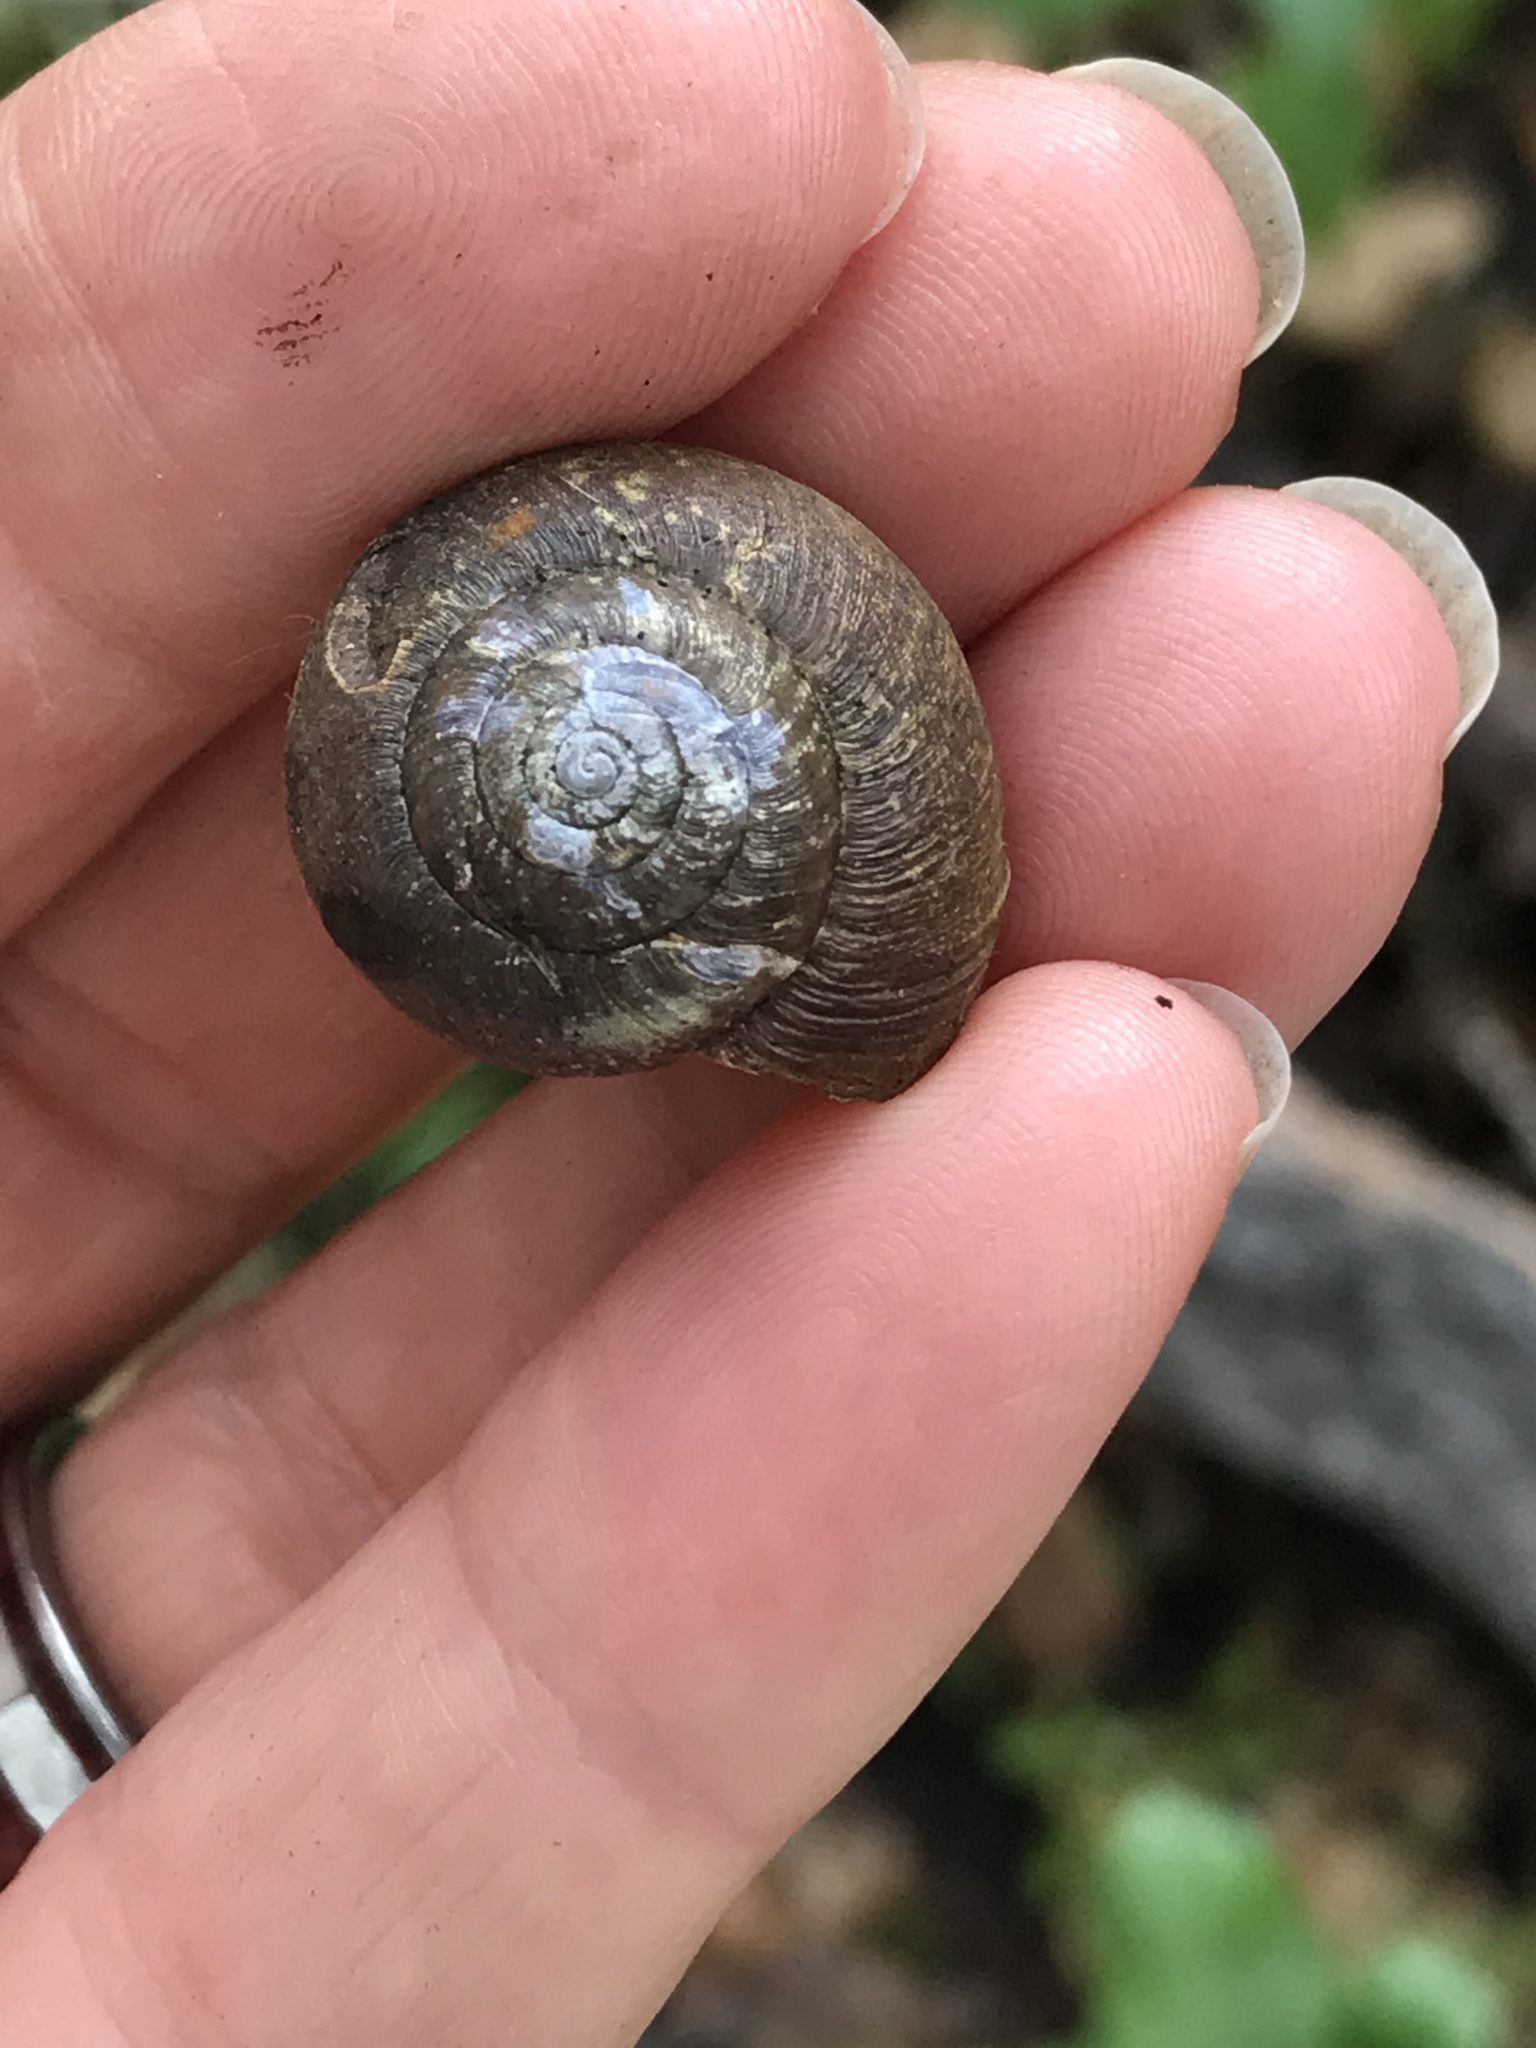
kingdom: Animalia
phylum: Mollusca
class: Gastropoda
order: Stylommatophora
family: Xanthonychidae
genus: Helminthoglypta
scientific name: Helminthoglypta nickliniana
